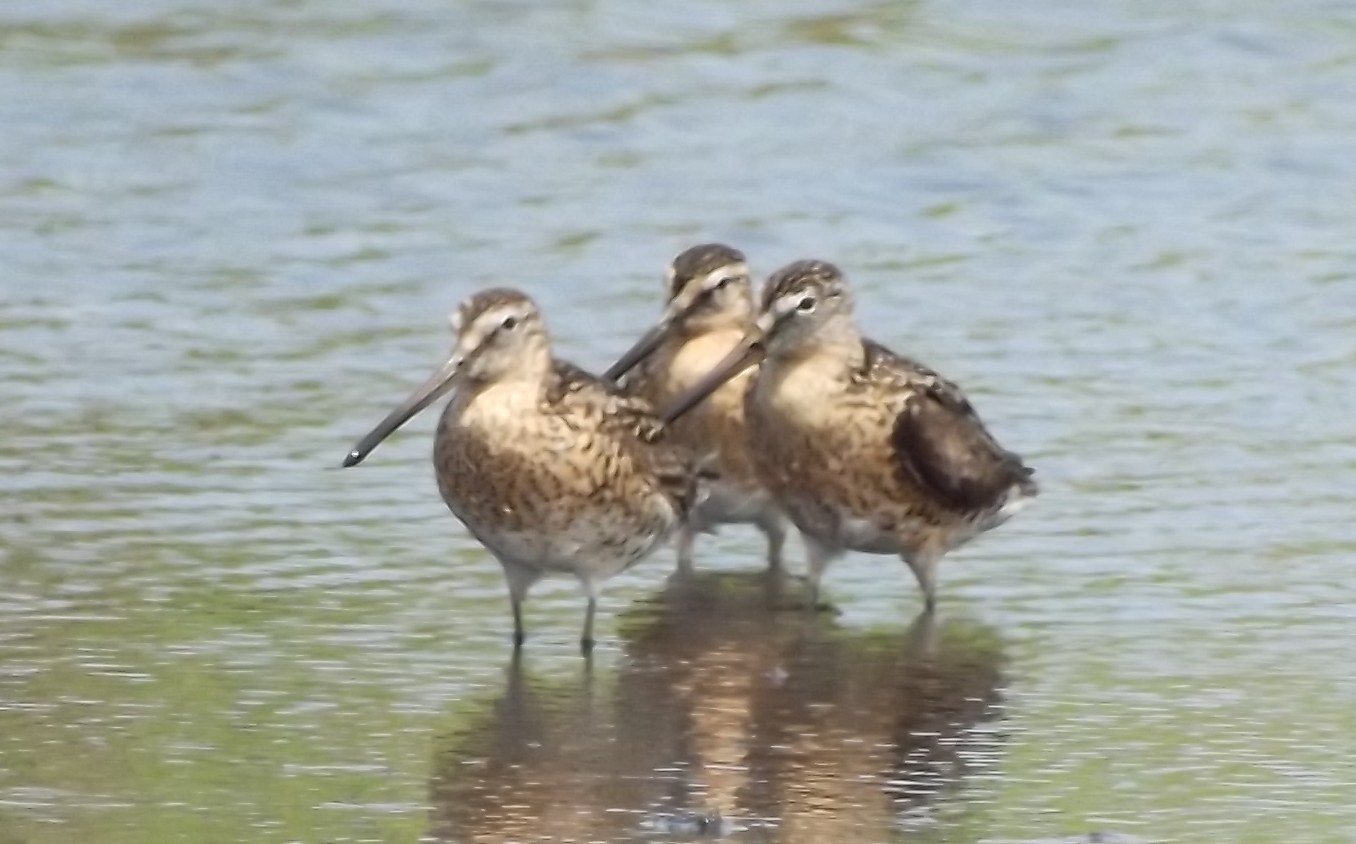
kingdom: Animalia
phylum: Chordata
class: Aves
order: Charadriiformes
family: Scolopacidae
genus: Limnodromus
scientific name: Limnodromus griseus
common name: Short-billed dowitcher
